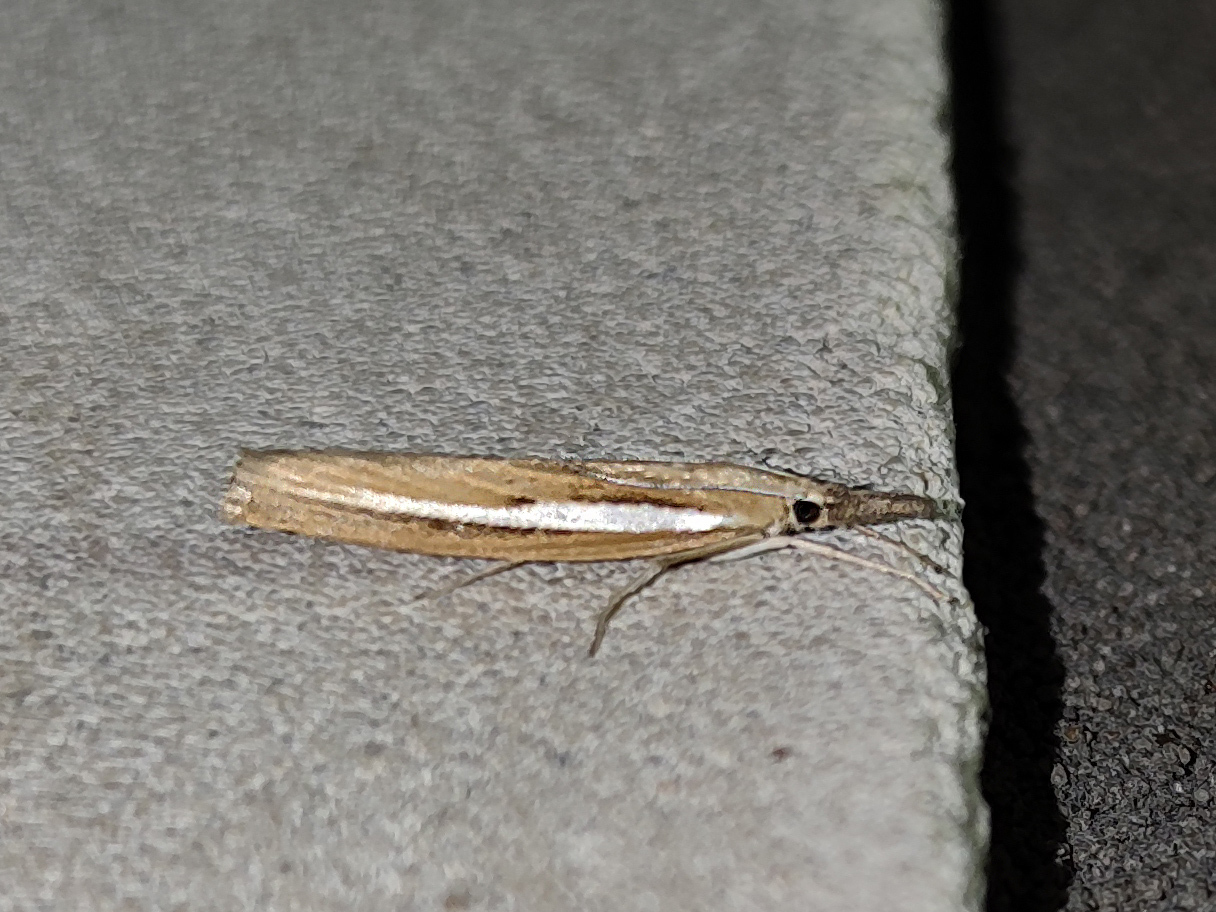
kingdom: Animalia
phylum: Arthropoda
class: Insecta
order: Lepidoptera
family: Crambidae
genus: Agriphila
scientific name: Agriphila tristellus
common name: Common grass-veneer
